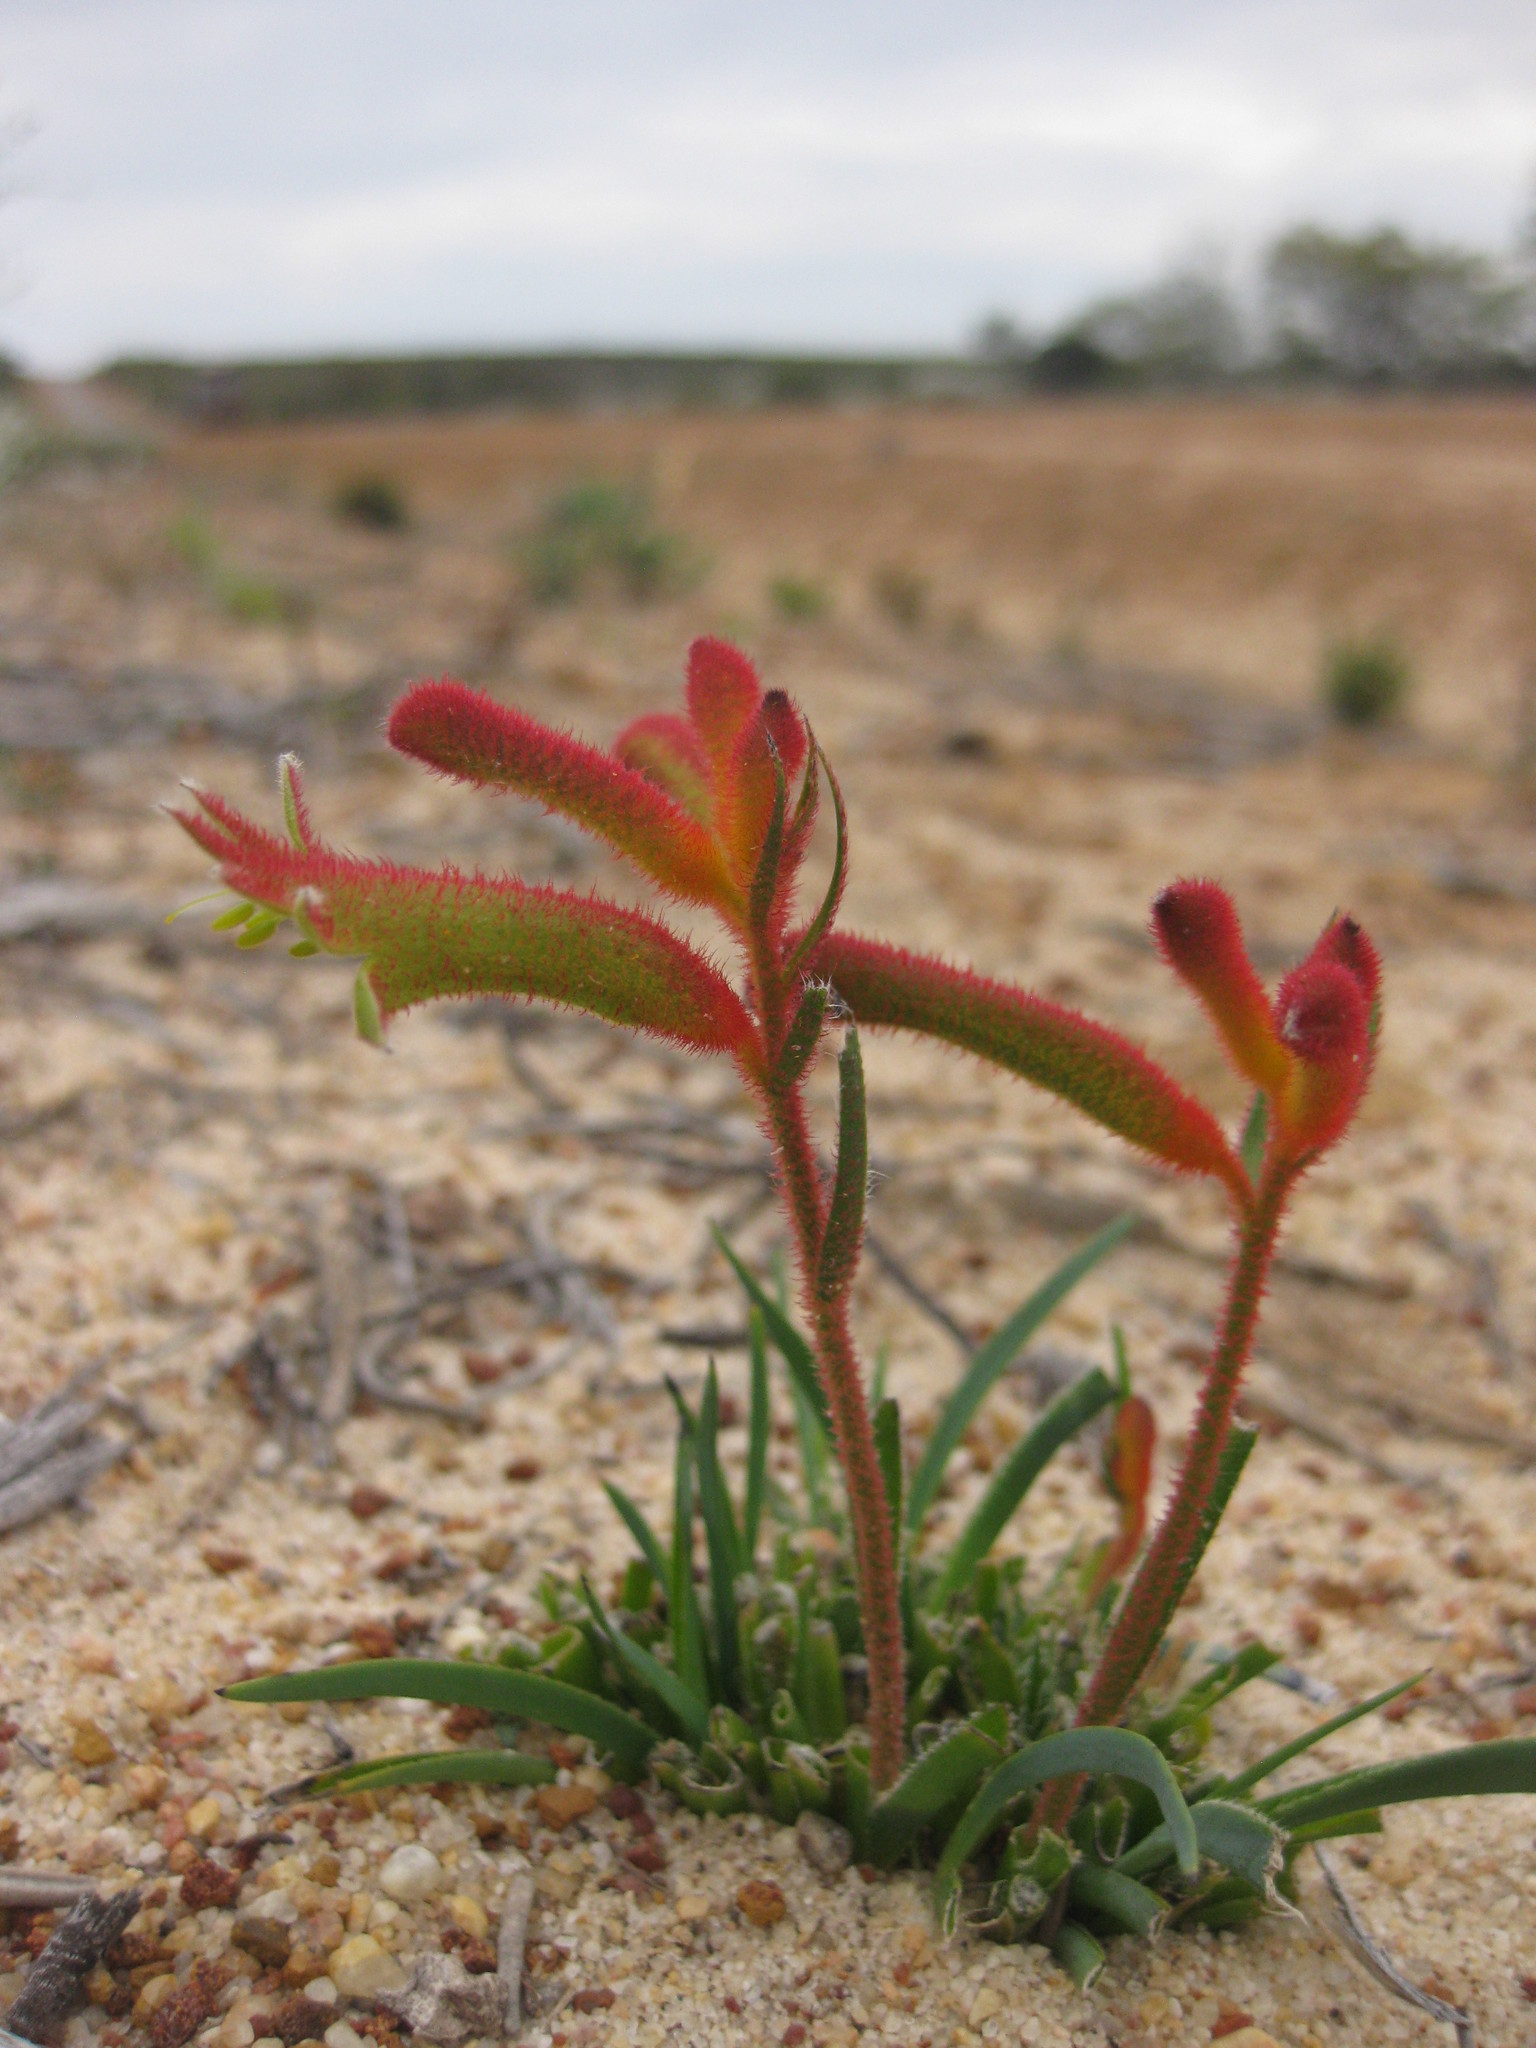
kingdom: Plantae
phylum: Tracheophyta
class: Liliopsida
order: Commelinales
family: Haemodoraceae
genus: Anigozanthos
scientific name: Anigozanthos humilis
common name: Cat's-paw
